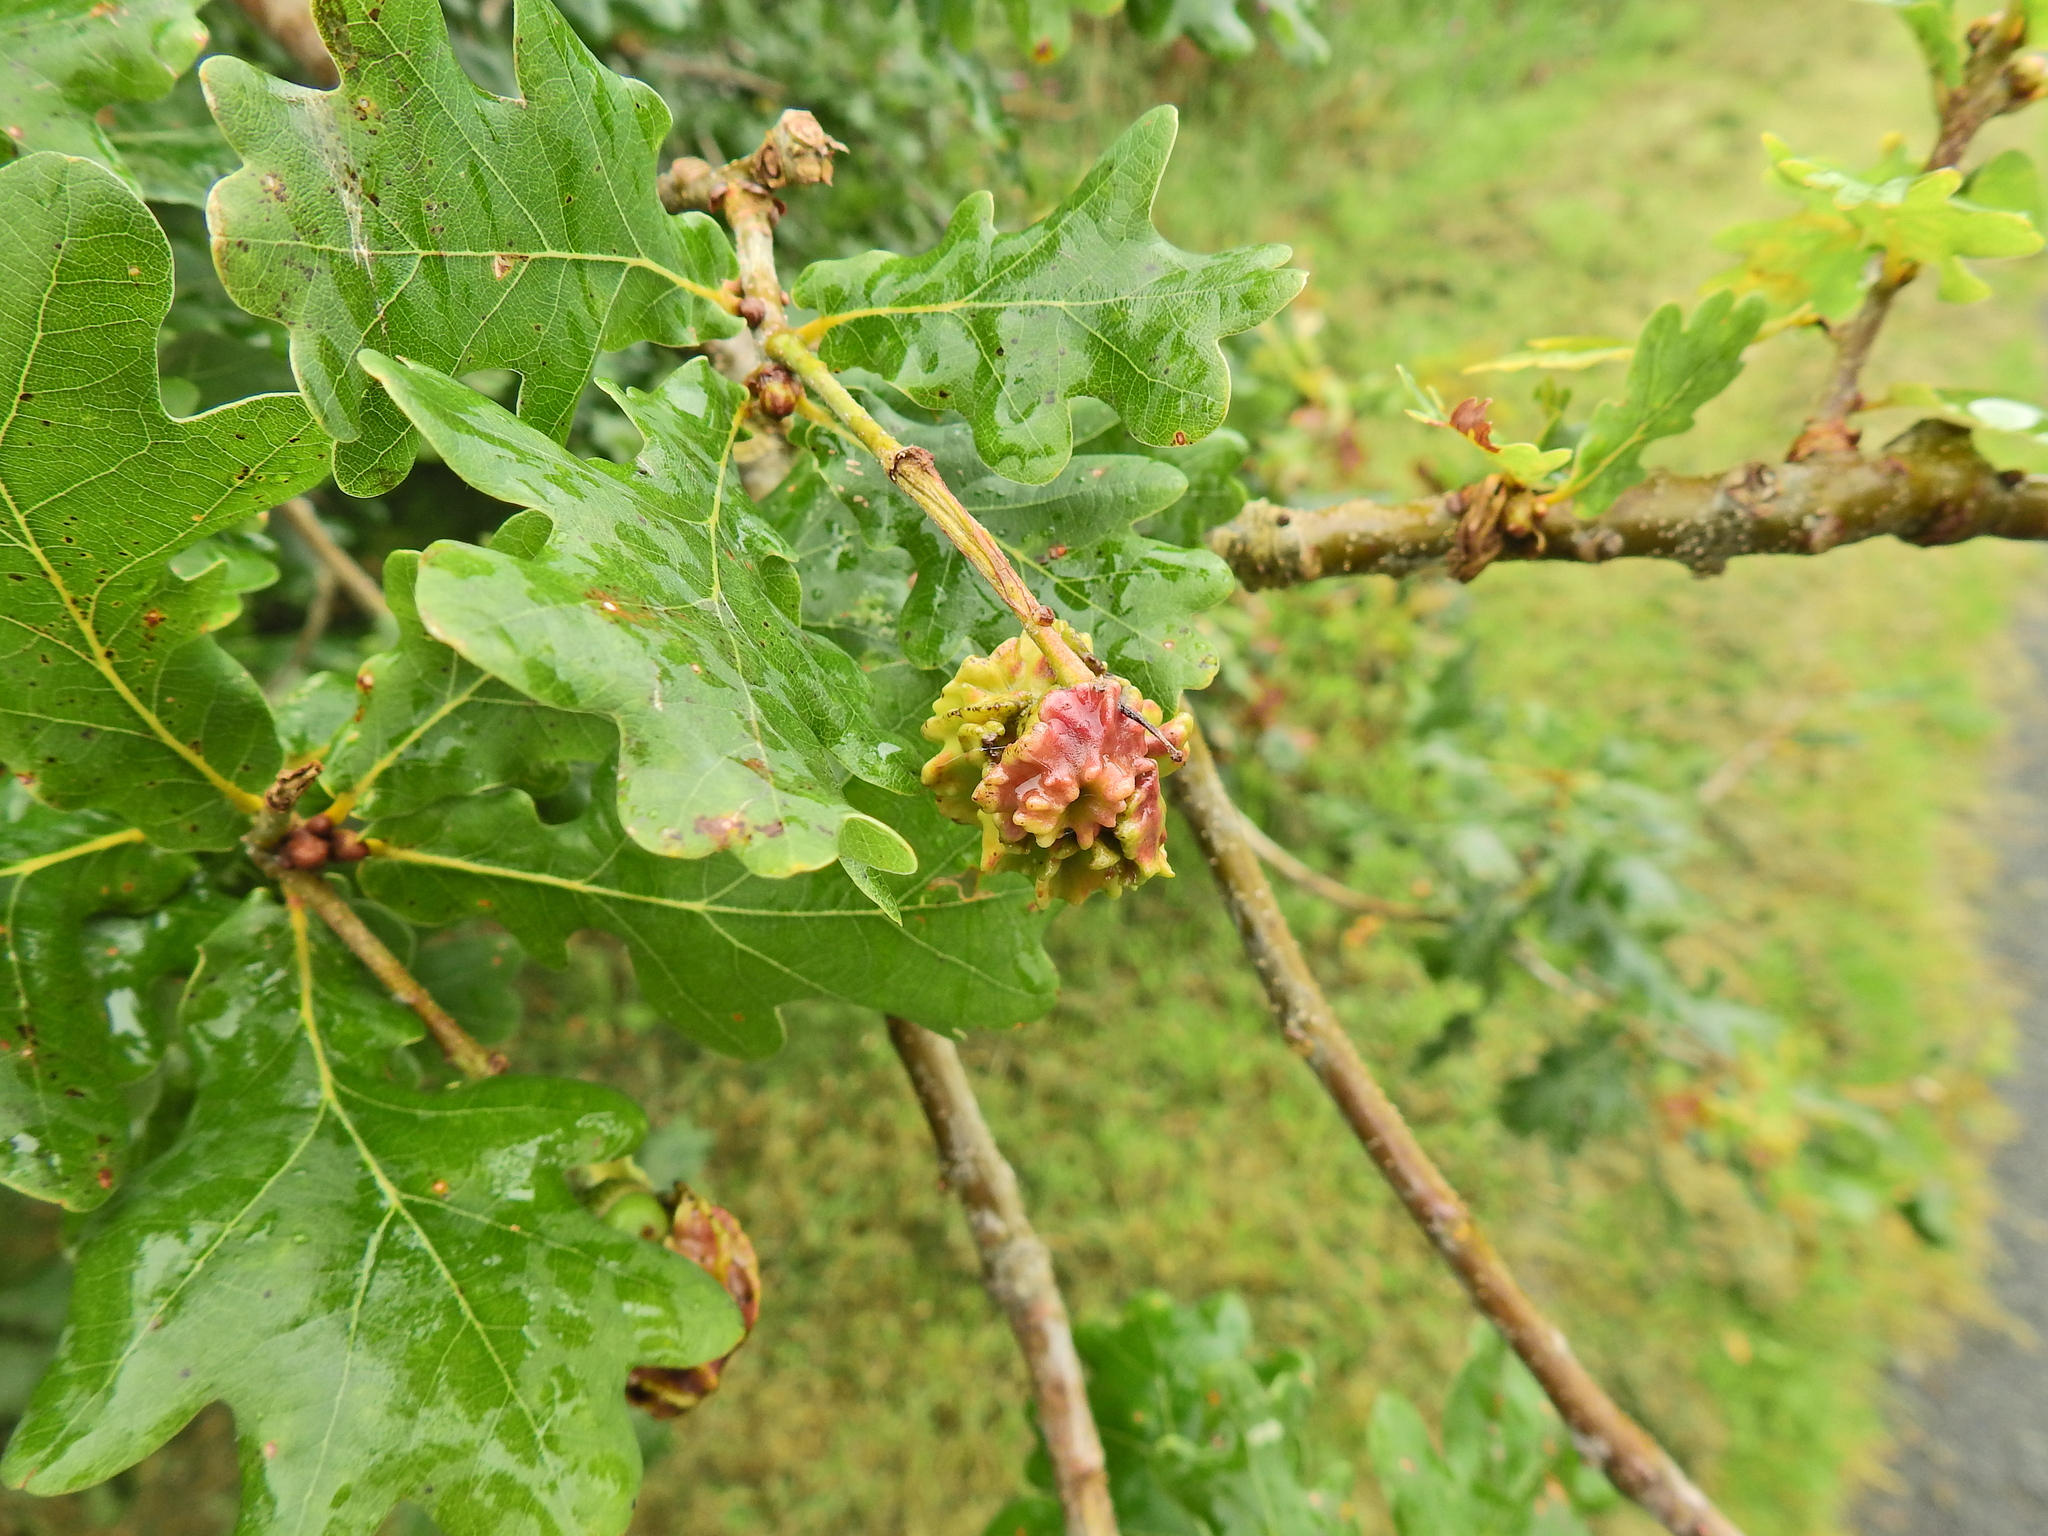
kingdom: Animalia
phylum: Arthropoda
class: Insecta
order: Hymenoptera
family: Cynipidae
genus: Andricus
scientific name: Andricus quercuscalicis
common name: Knopper gall
